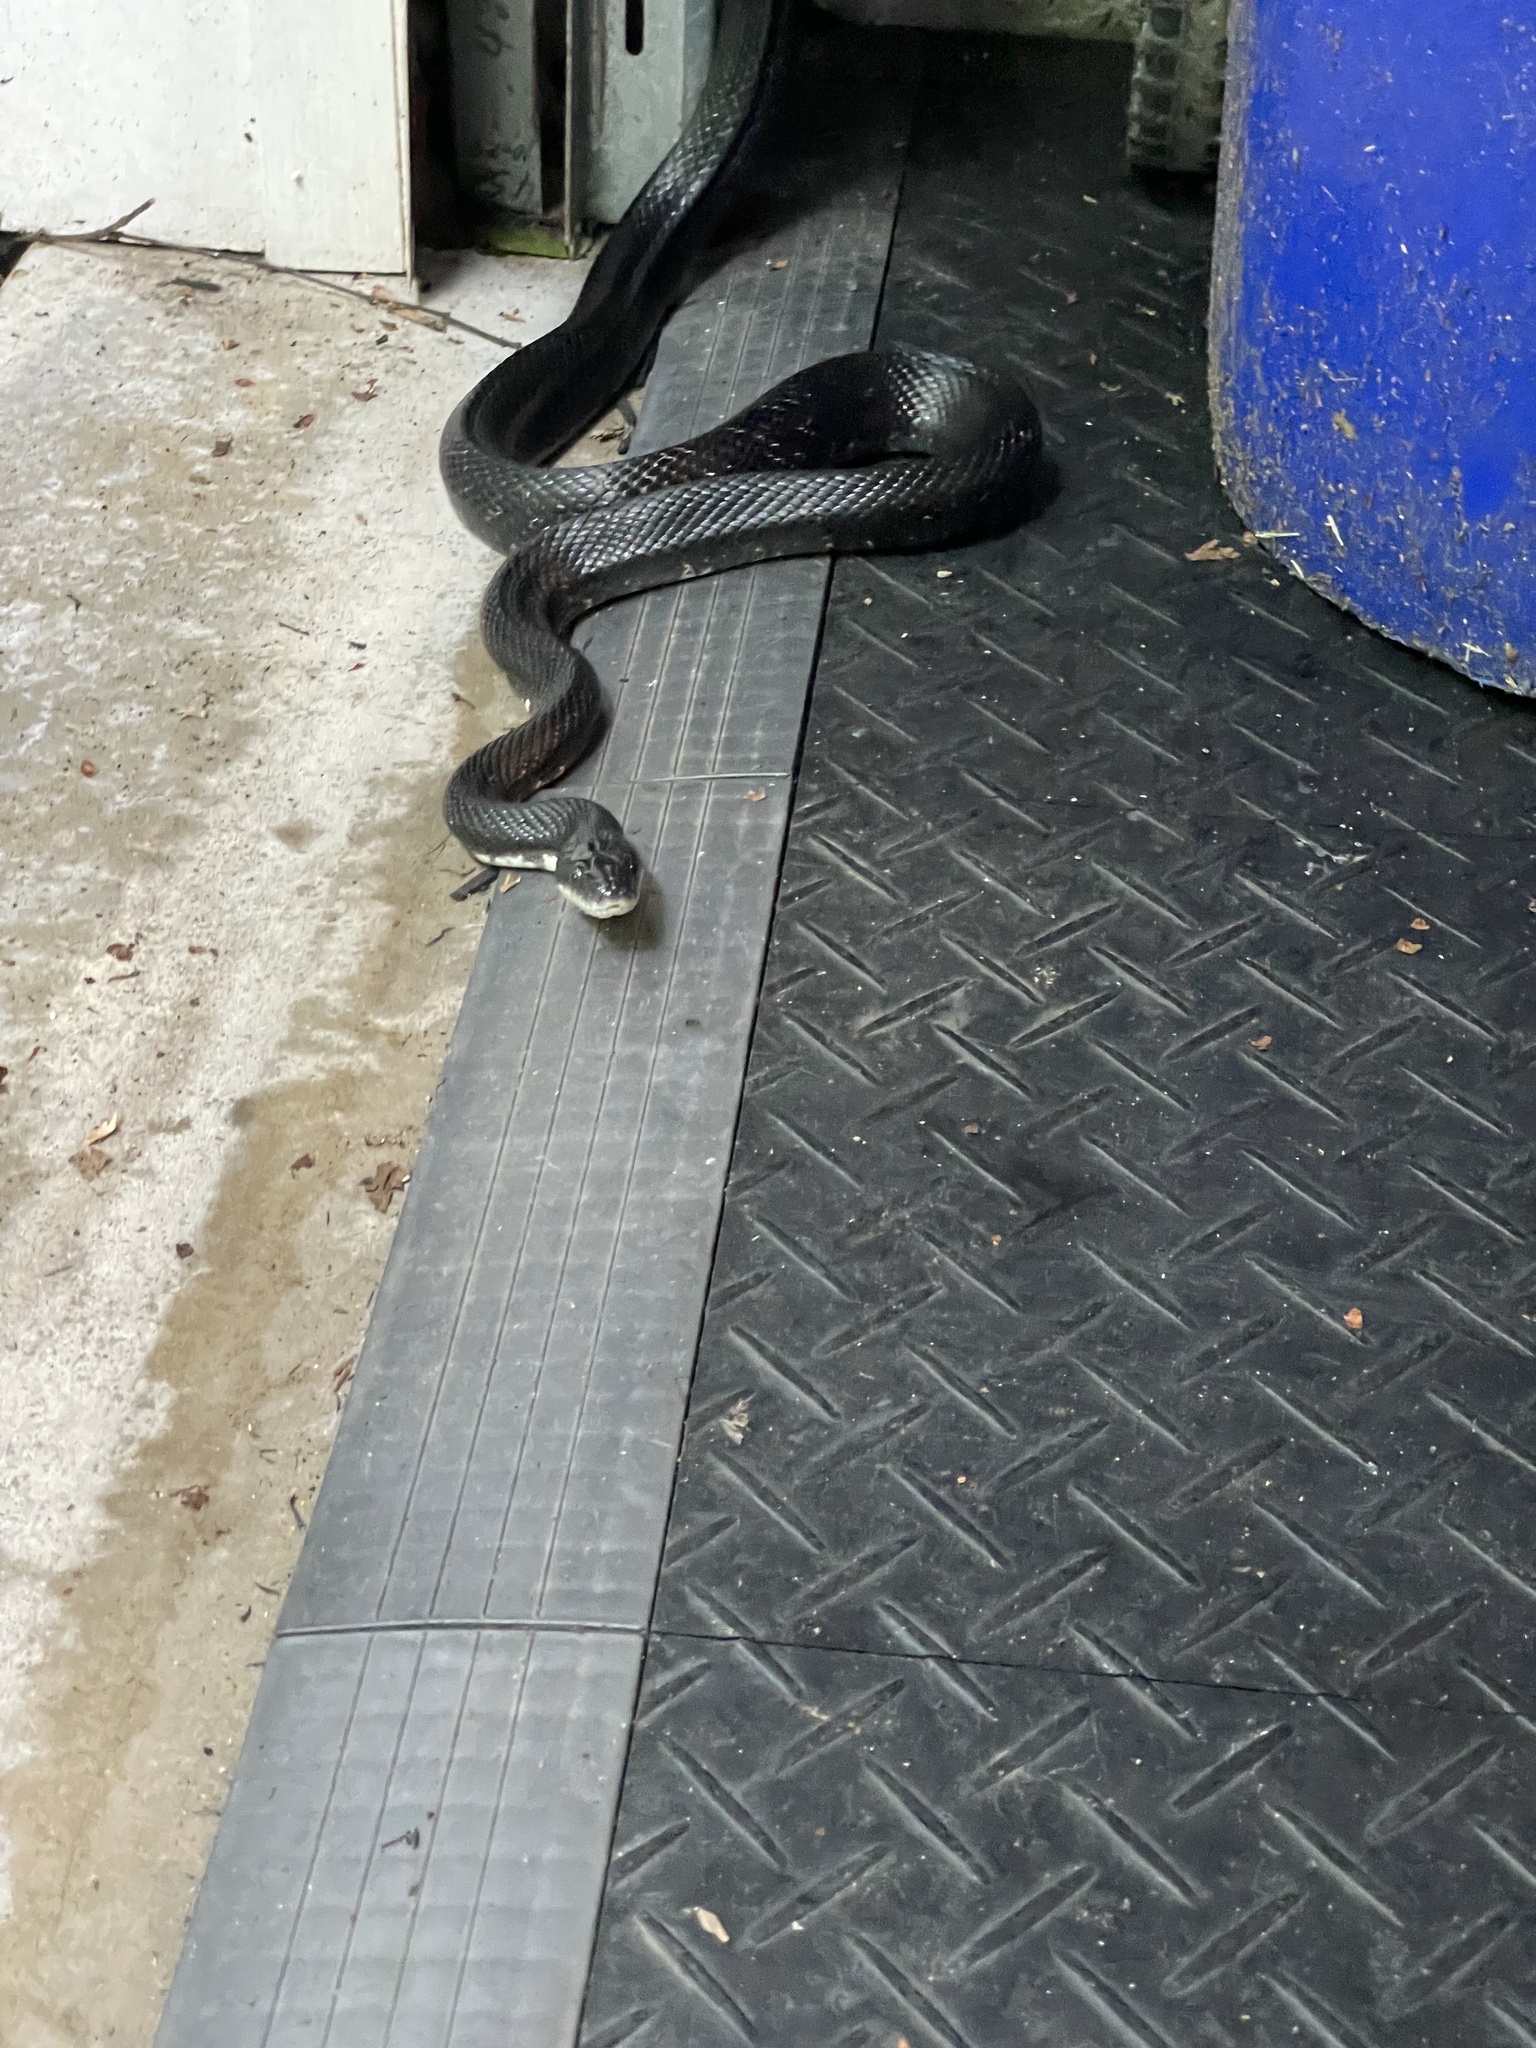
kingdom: Animalia
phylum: Chordata
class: Squamata
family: Colubridae
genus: Pantherophis
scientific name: Pantherophis
